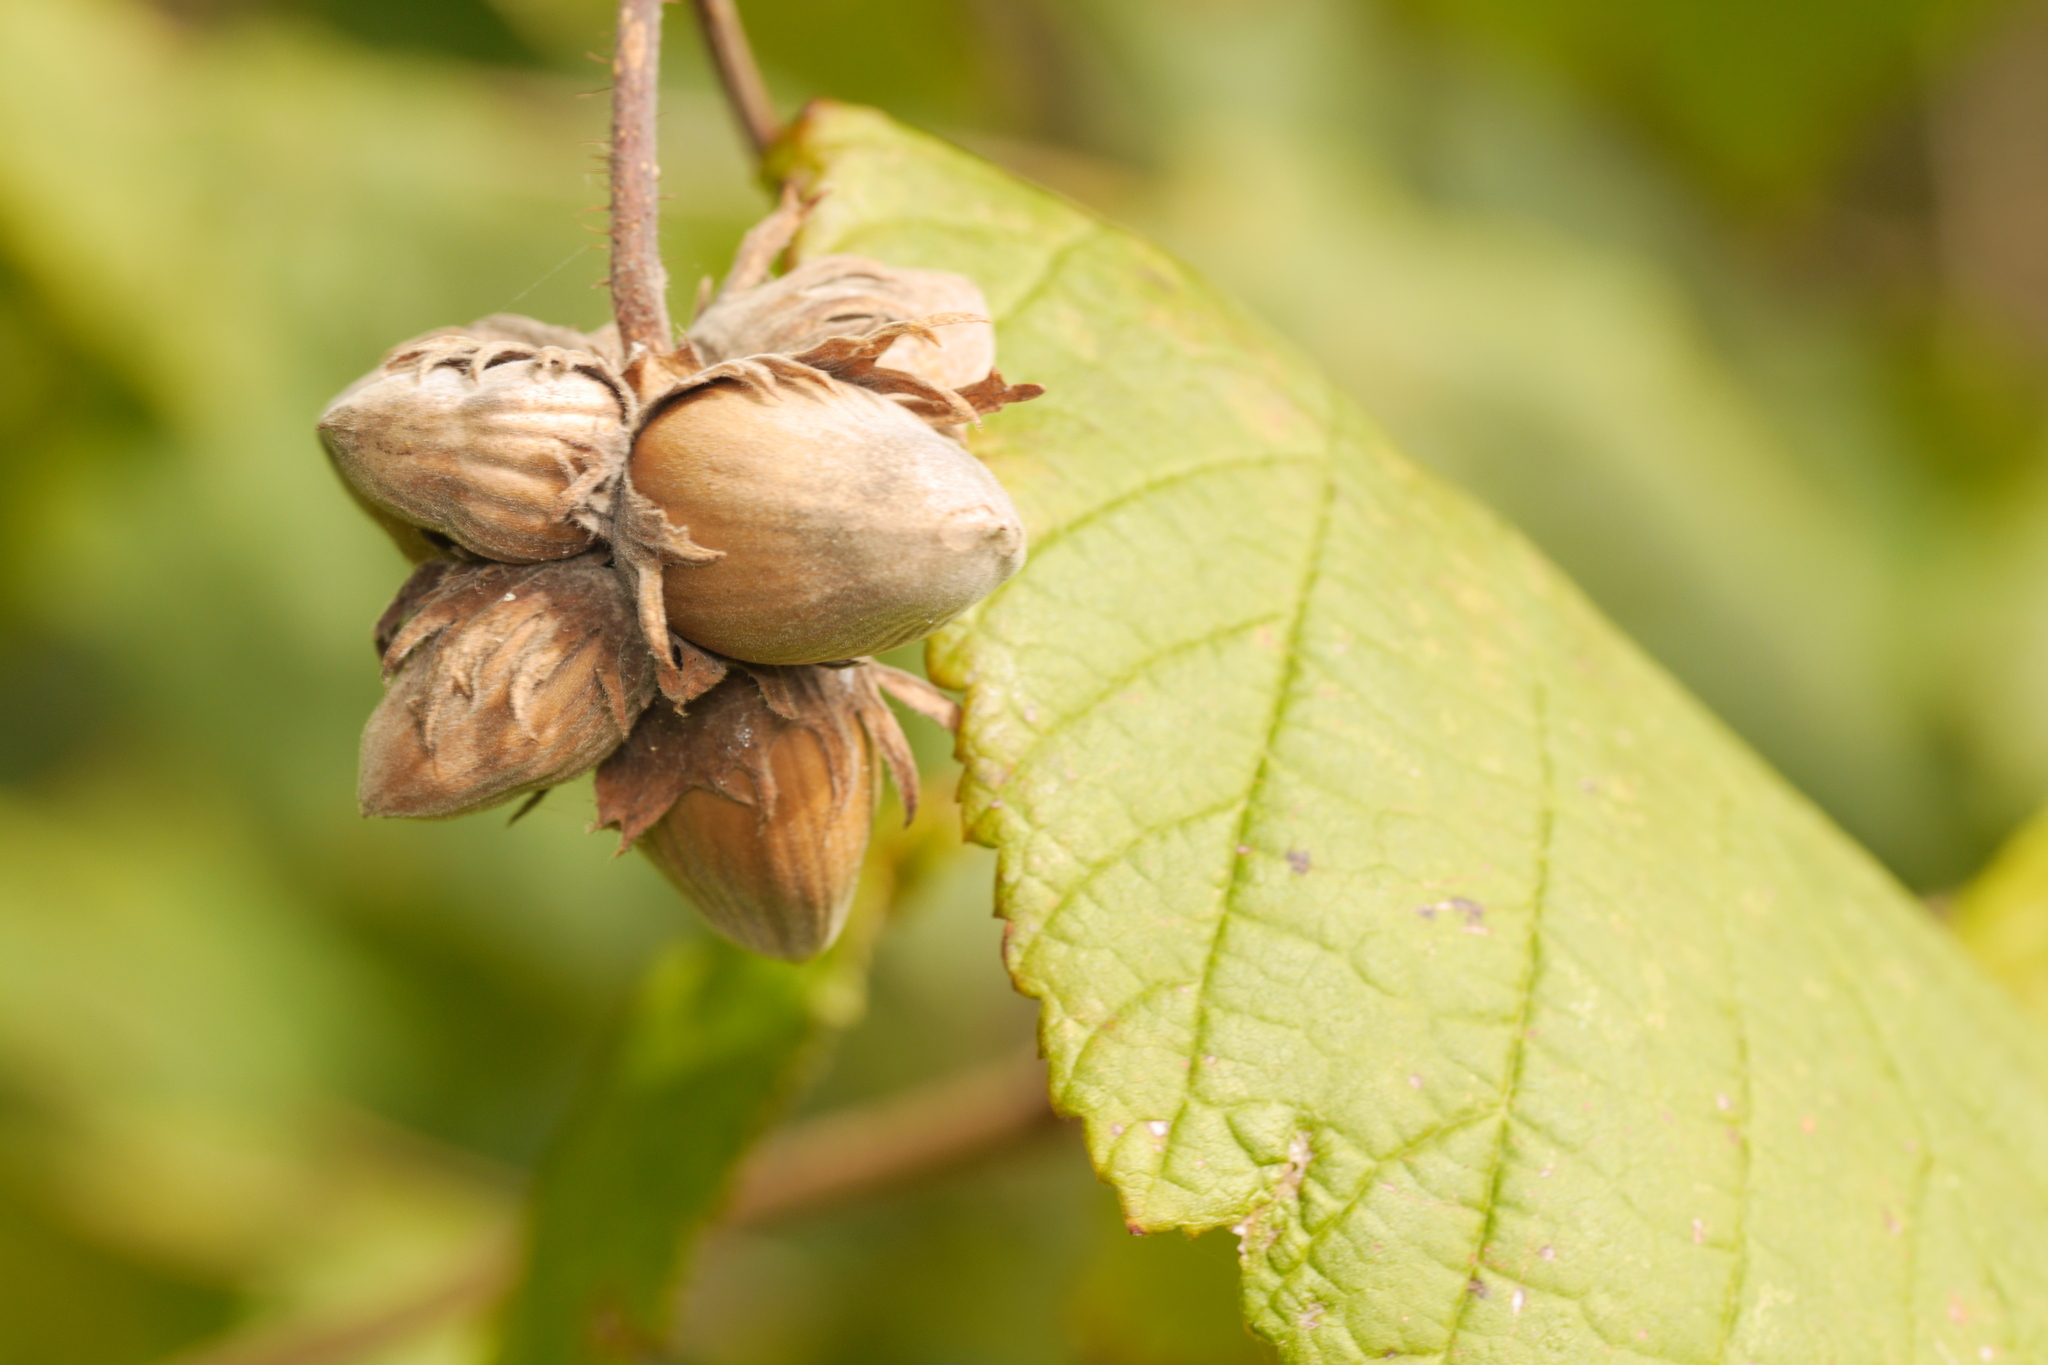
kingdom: Plantae
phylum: Tracheophyta
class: Magnoliopsida
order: Fagales
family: Betulaceae
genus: Corylus
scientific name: Corylus avellana
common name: European hazel
